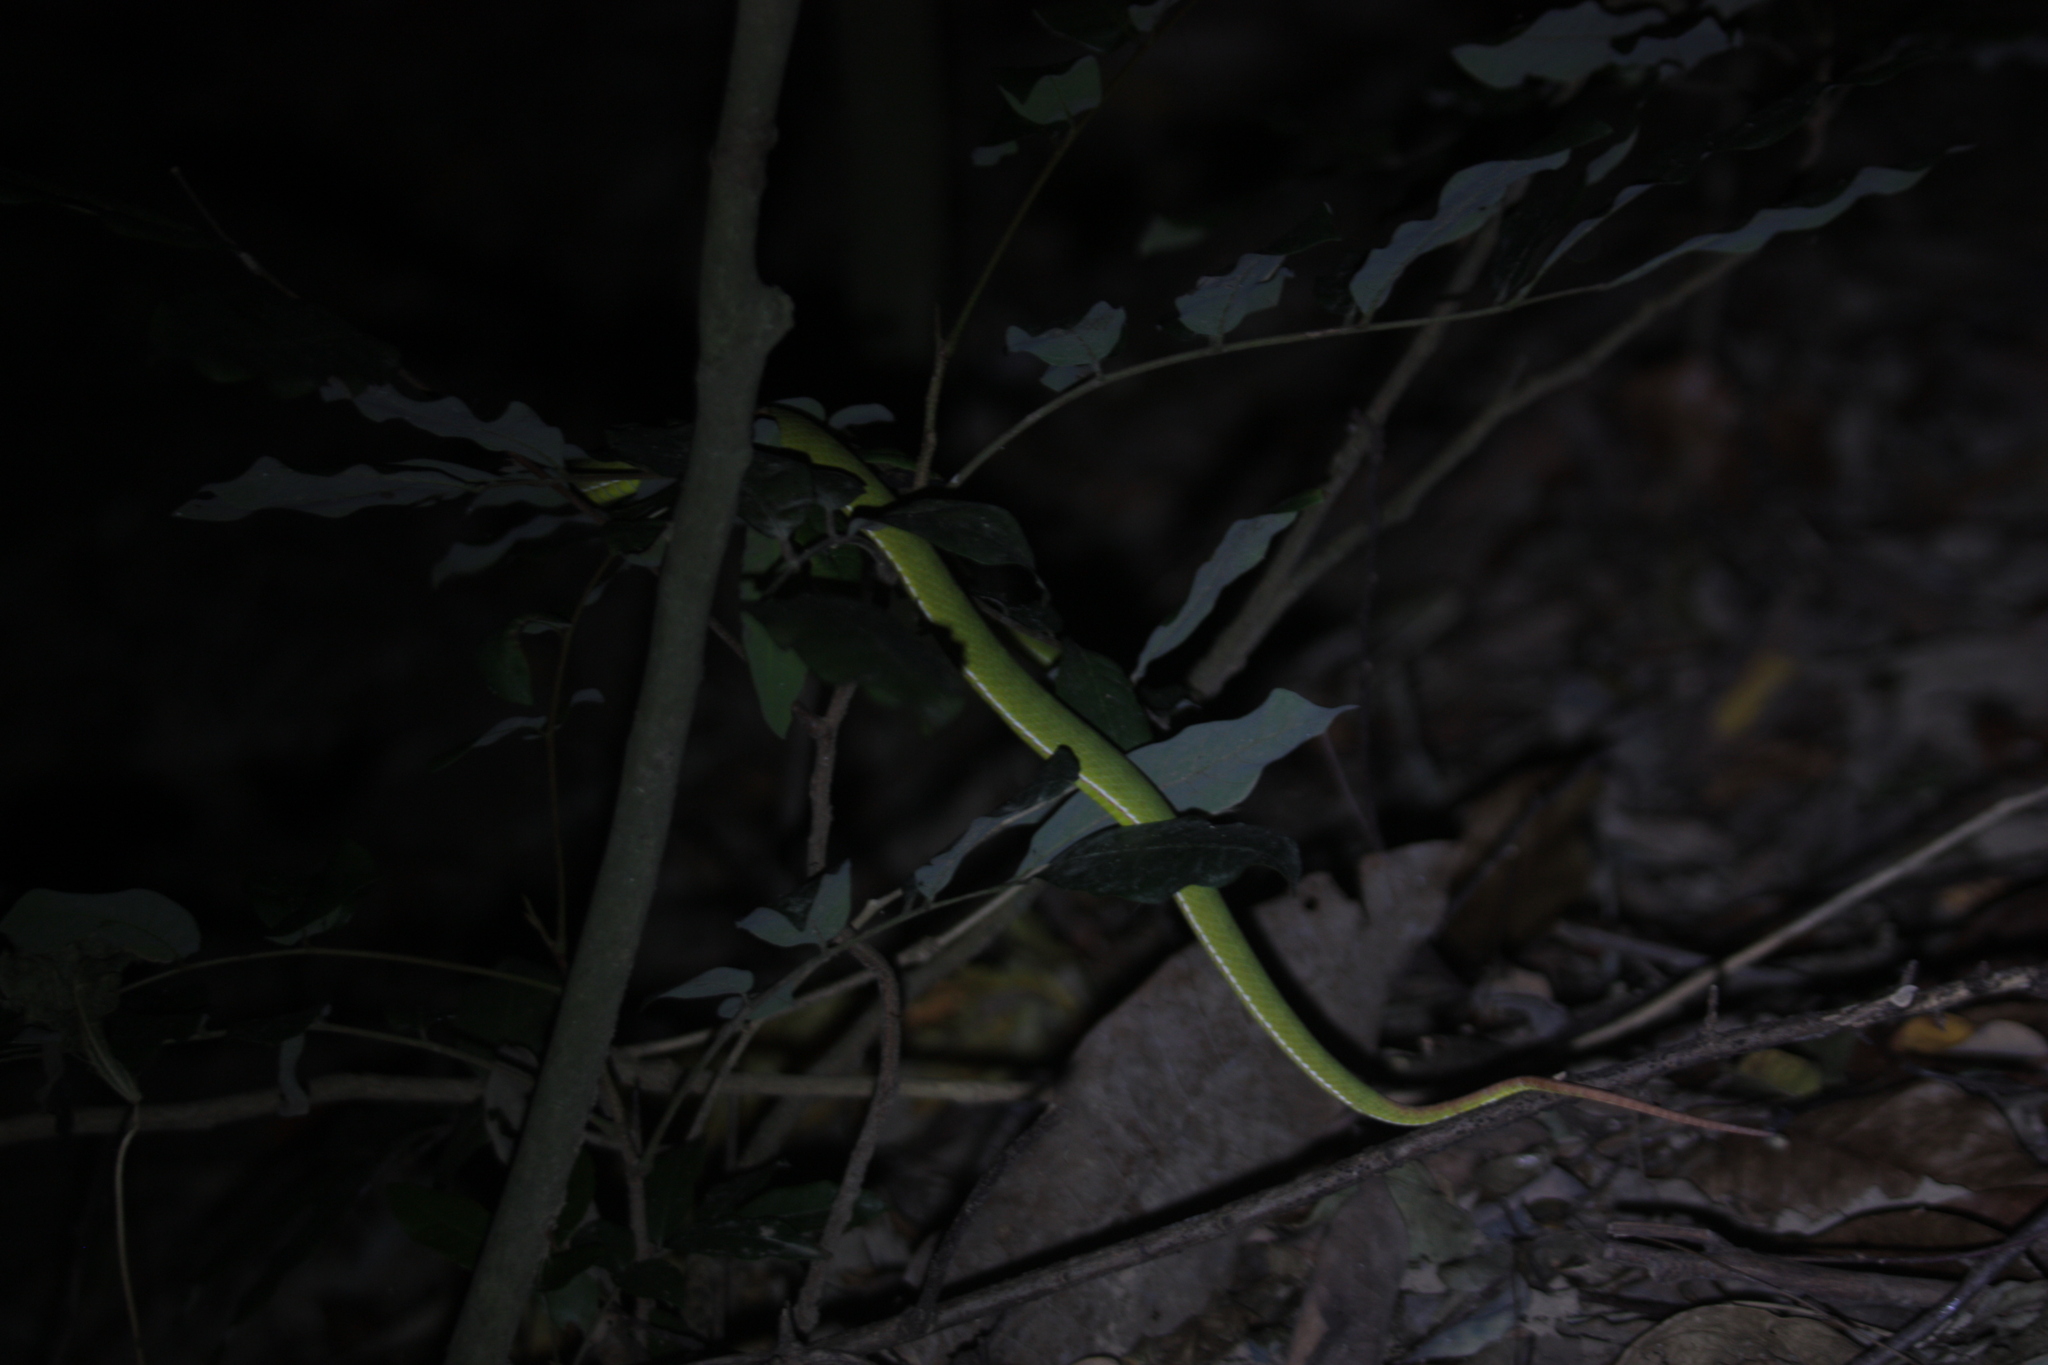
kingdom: Animalia
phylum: Chordata
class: Squamata
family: Viperidae
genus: Trimeresurus
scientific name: Trimeresurus stejnegeri
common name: Chen’s bamboo pit viper
